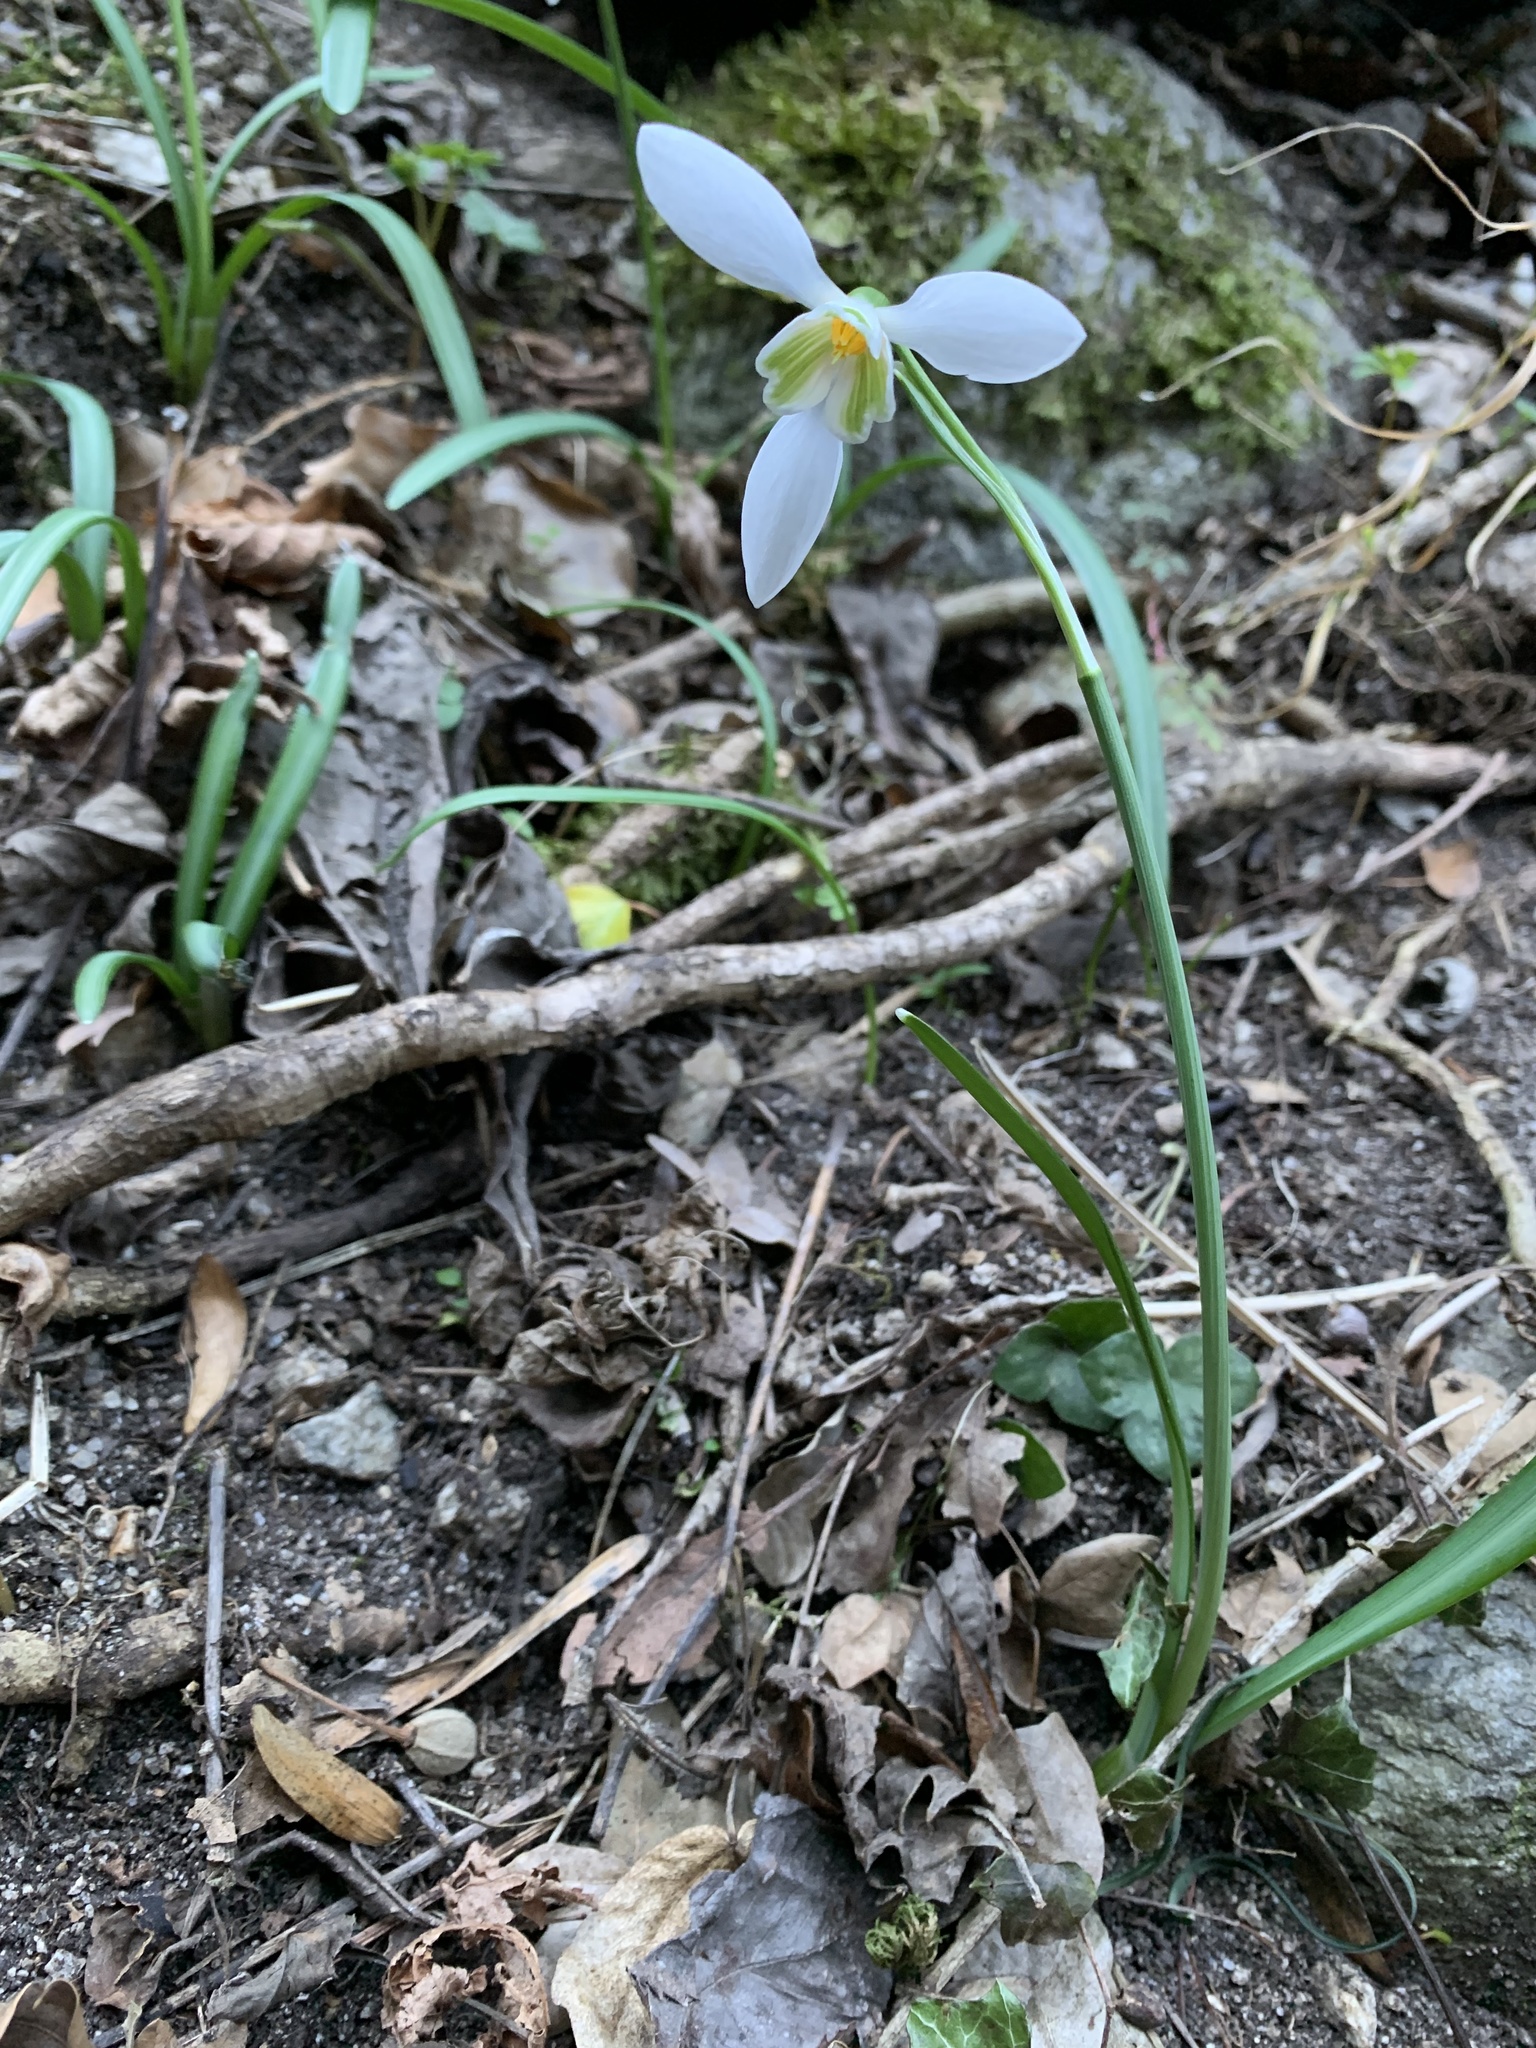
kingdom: Plantae
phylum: Tracheophyta
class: Liliopsida
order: Asparagales
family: Amaryllidaceae
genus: Galanthus
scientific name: Galanthus nivalis
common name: Snowdrop
